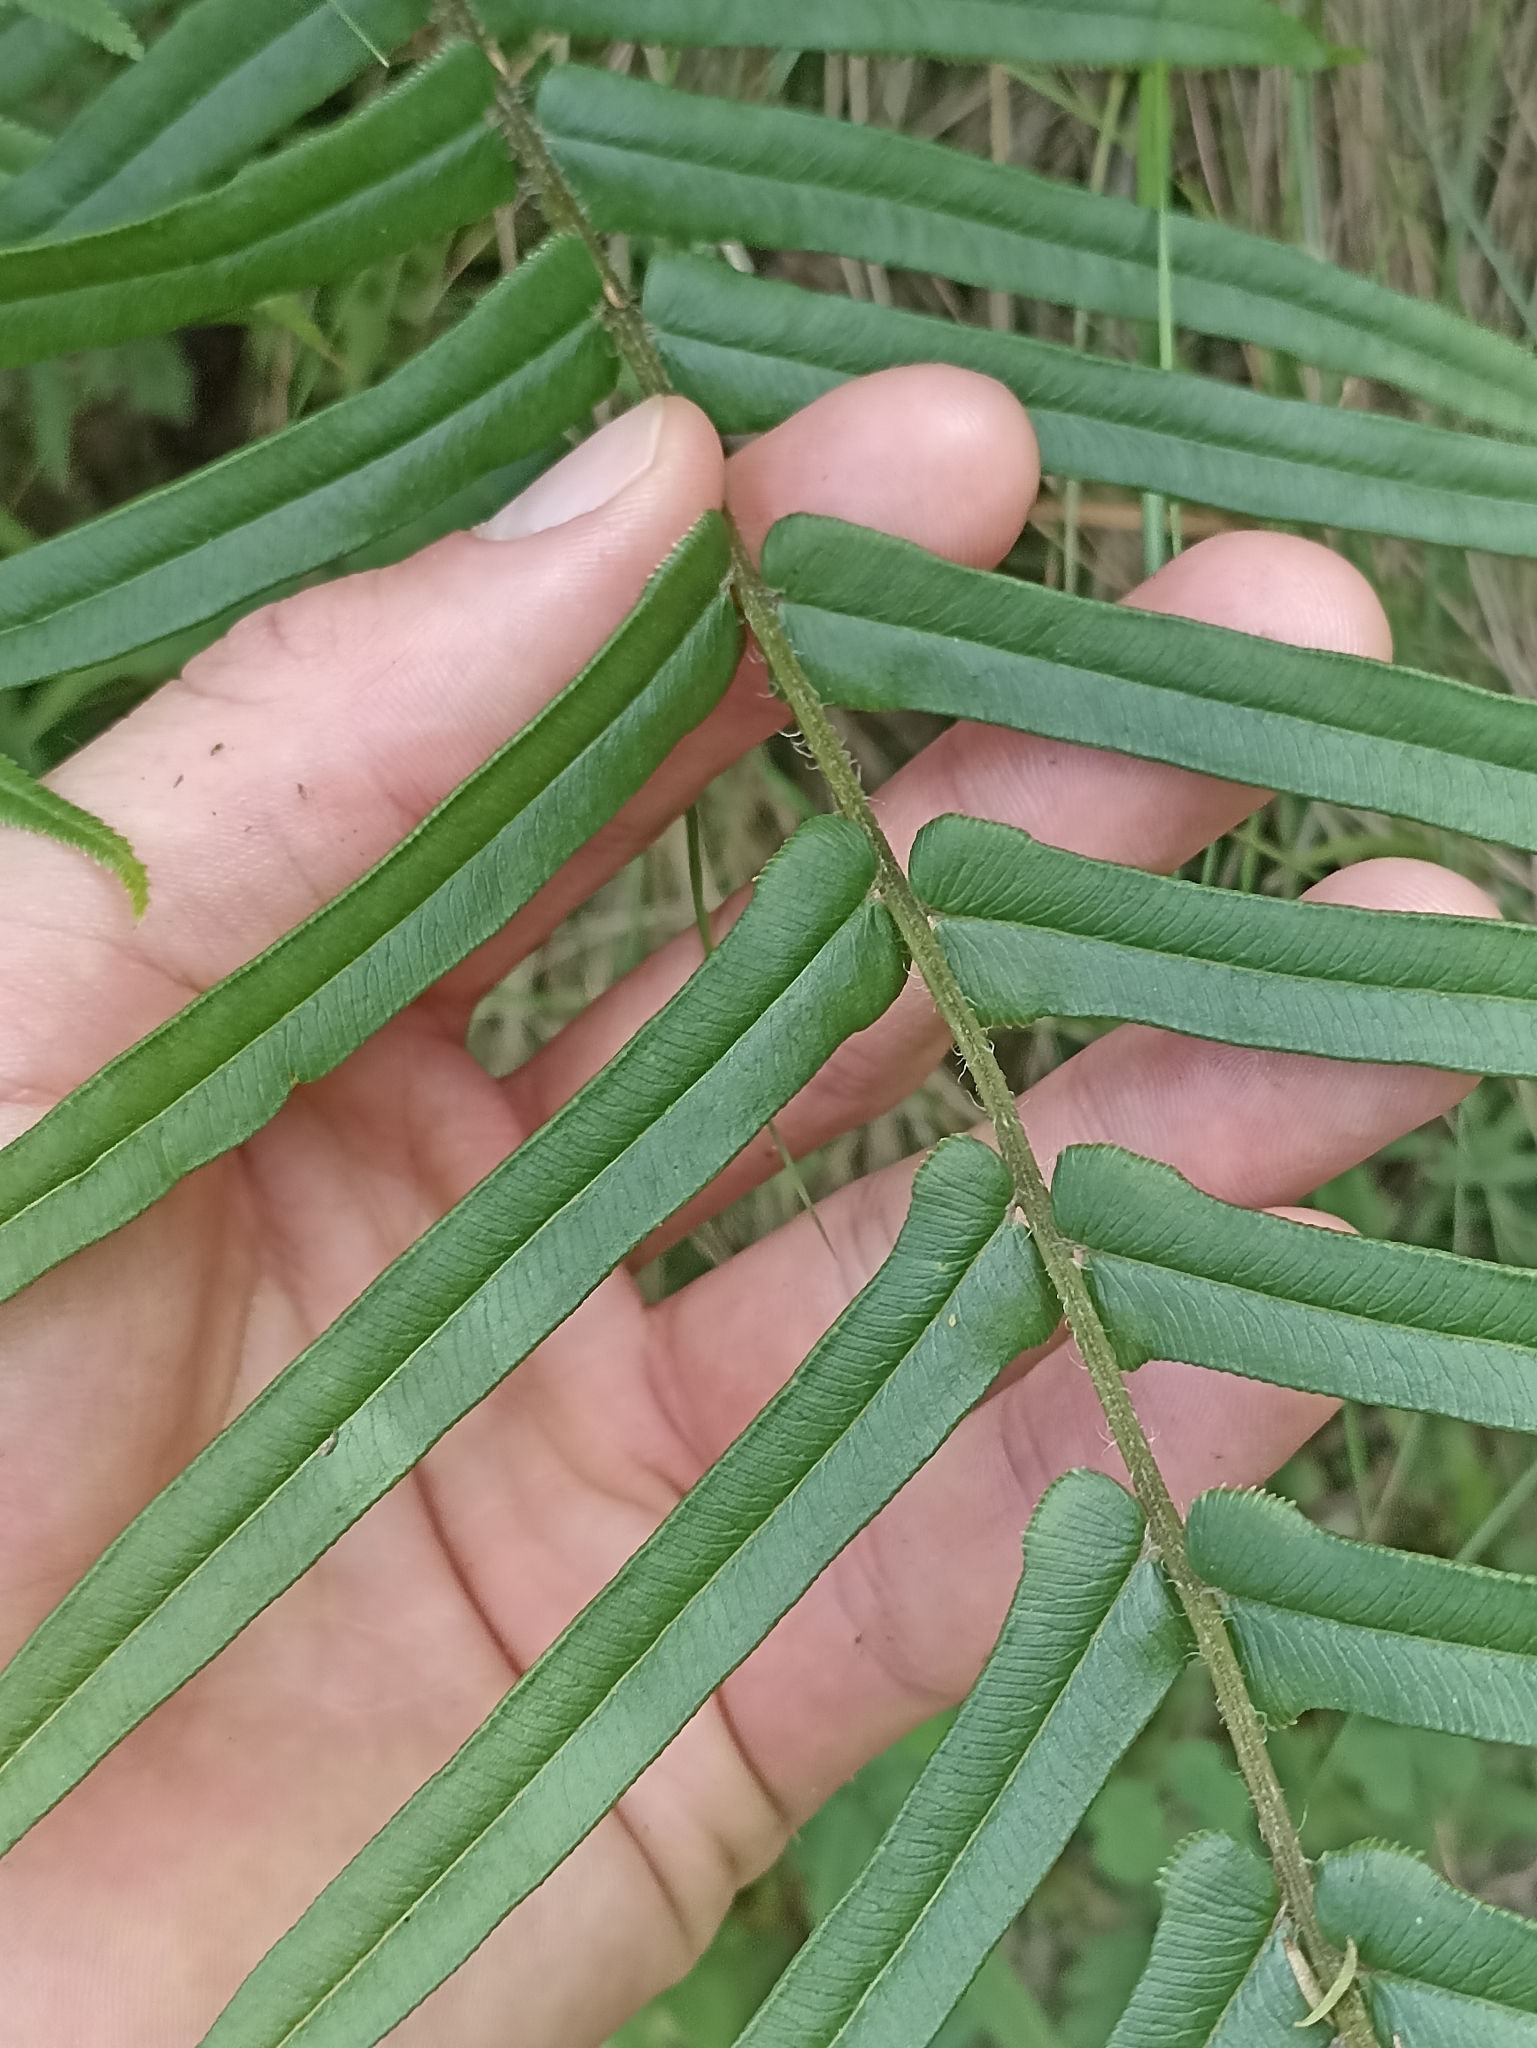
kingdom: Plantae
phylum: Tracheophyta
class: Polypodiopsida
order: Polypodiales
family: Pteridaceae
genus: Pteris
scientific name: Pteris vittata
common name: Ladder brake
